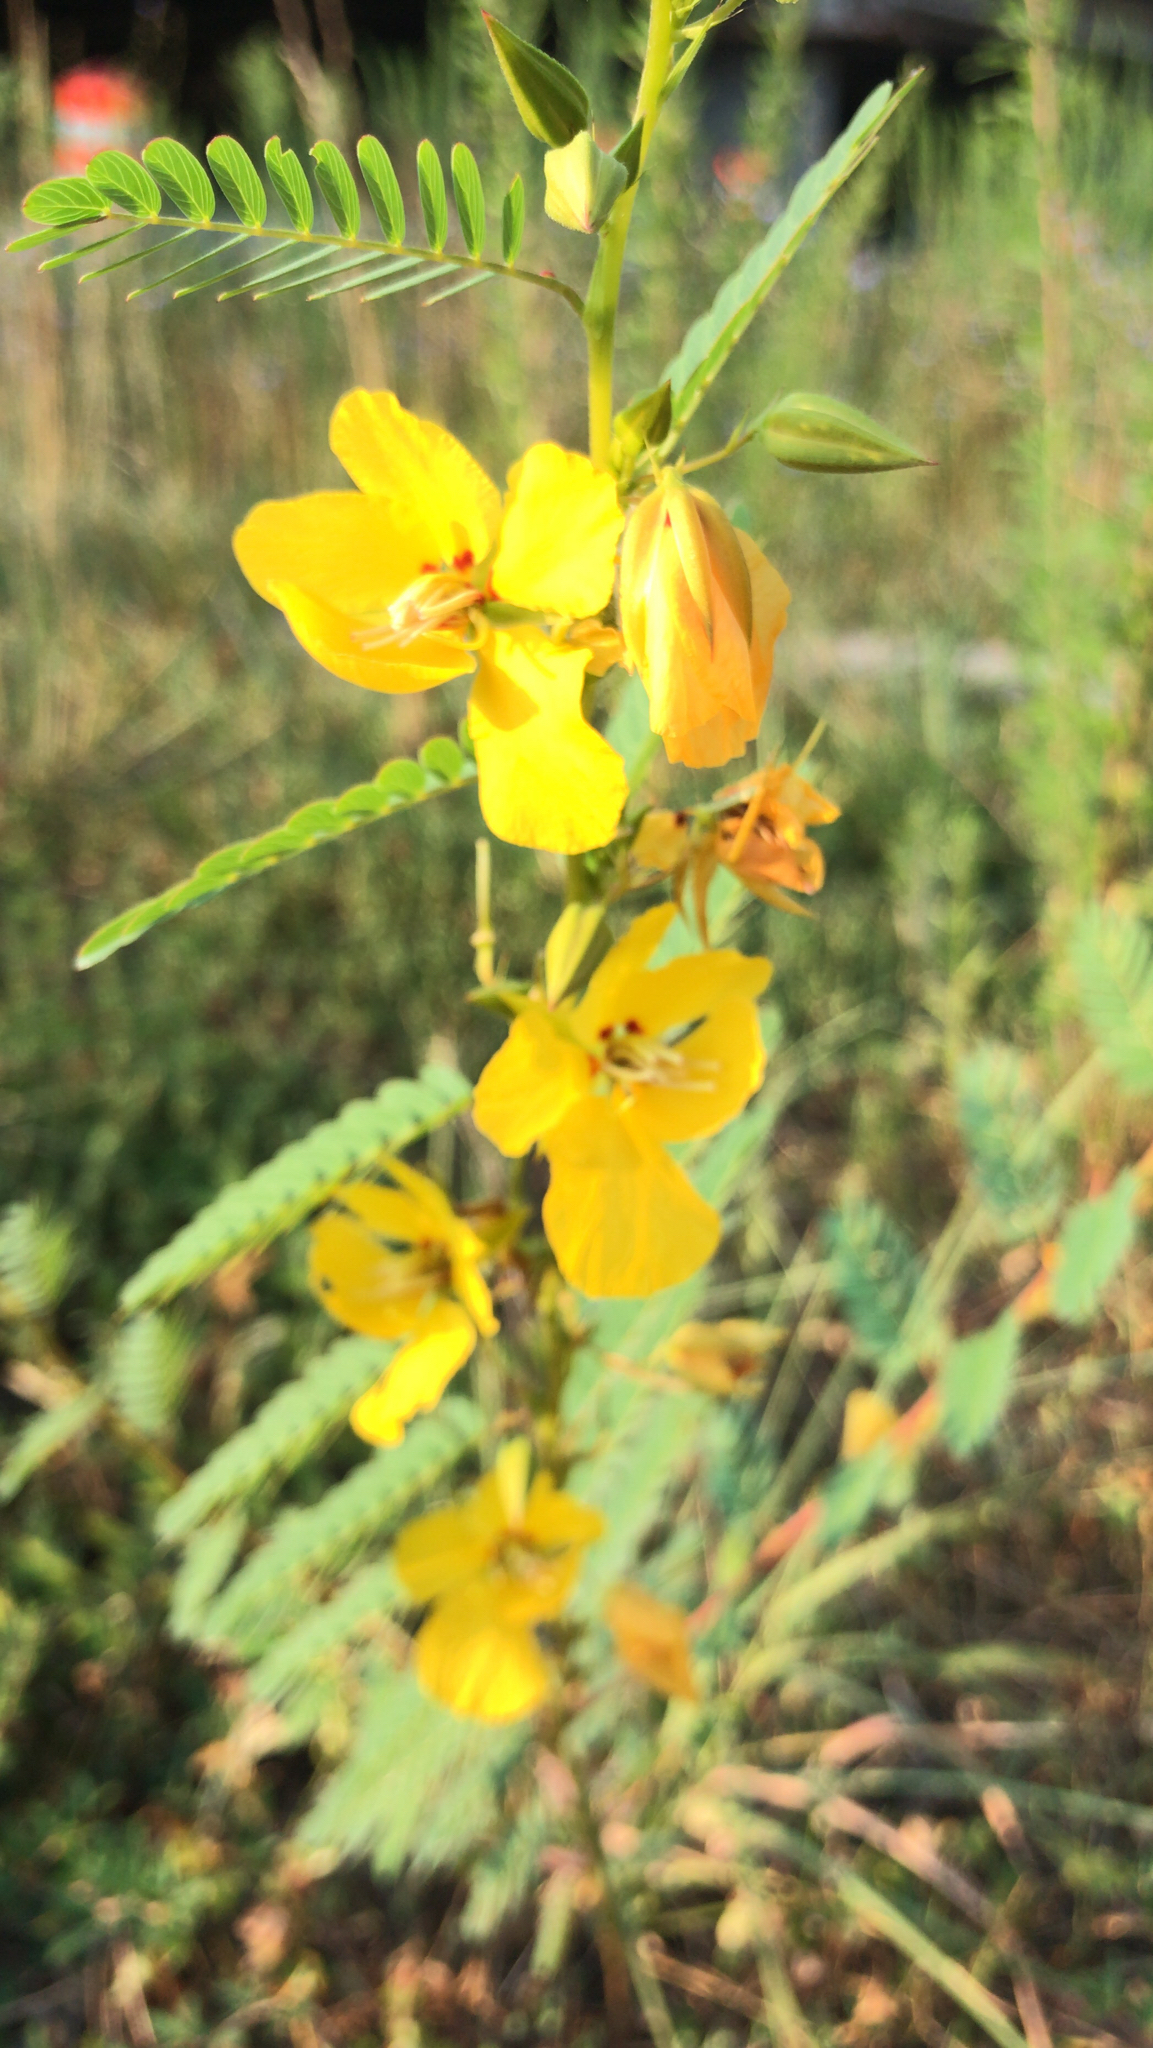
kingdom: Plantae
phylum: Tracheophyta
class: Magnoliopsida
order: Fabales
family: Fabaceae
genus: Chamaecrista
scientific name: Chamaecrista fasciculata
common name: Golden cassia
